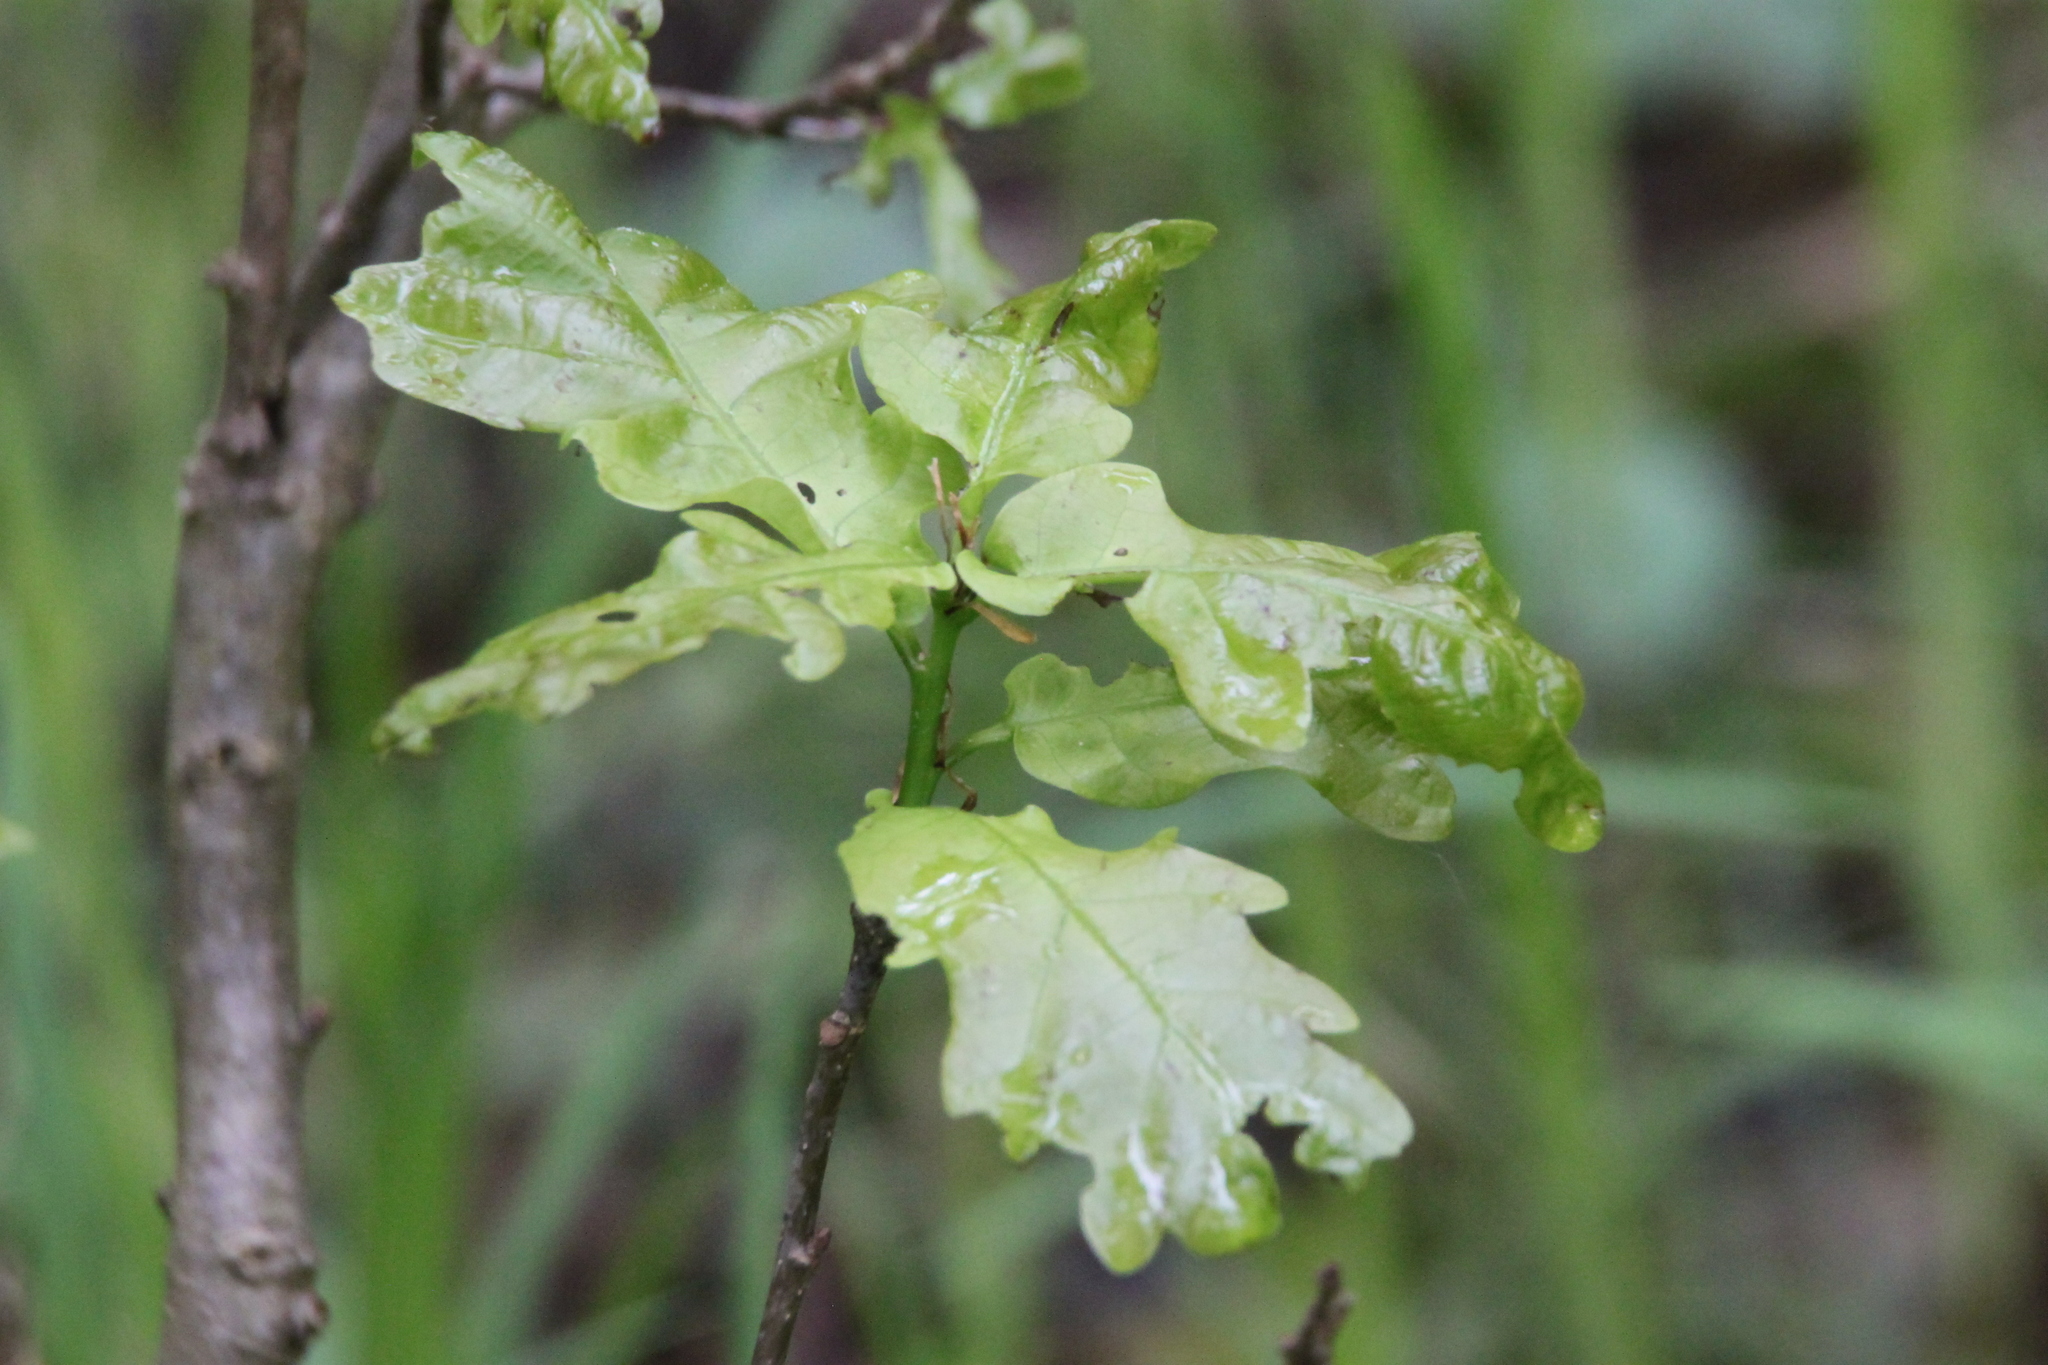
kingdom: Plantae
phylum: Tracheophyta
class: Magnoliopsida
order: Fagales
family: Fagaceae
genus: Quercus
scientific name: Quercus robur
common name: Pedunculate oak
